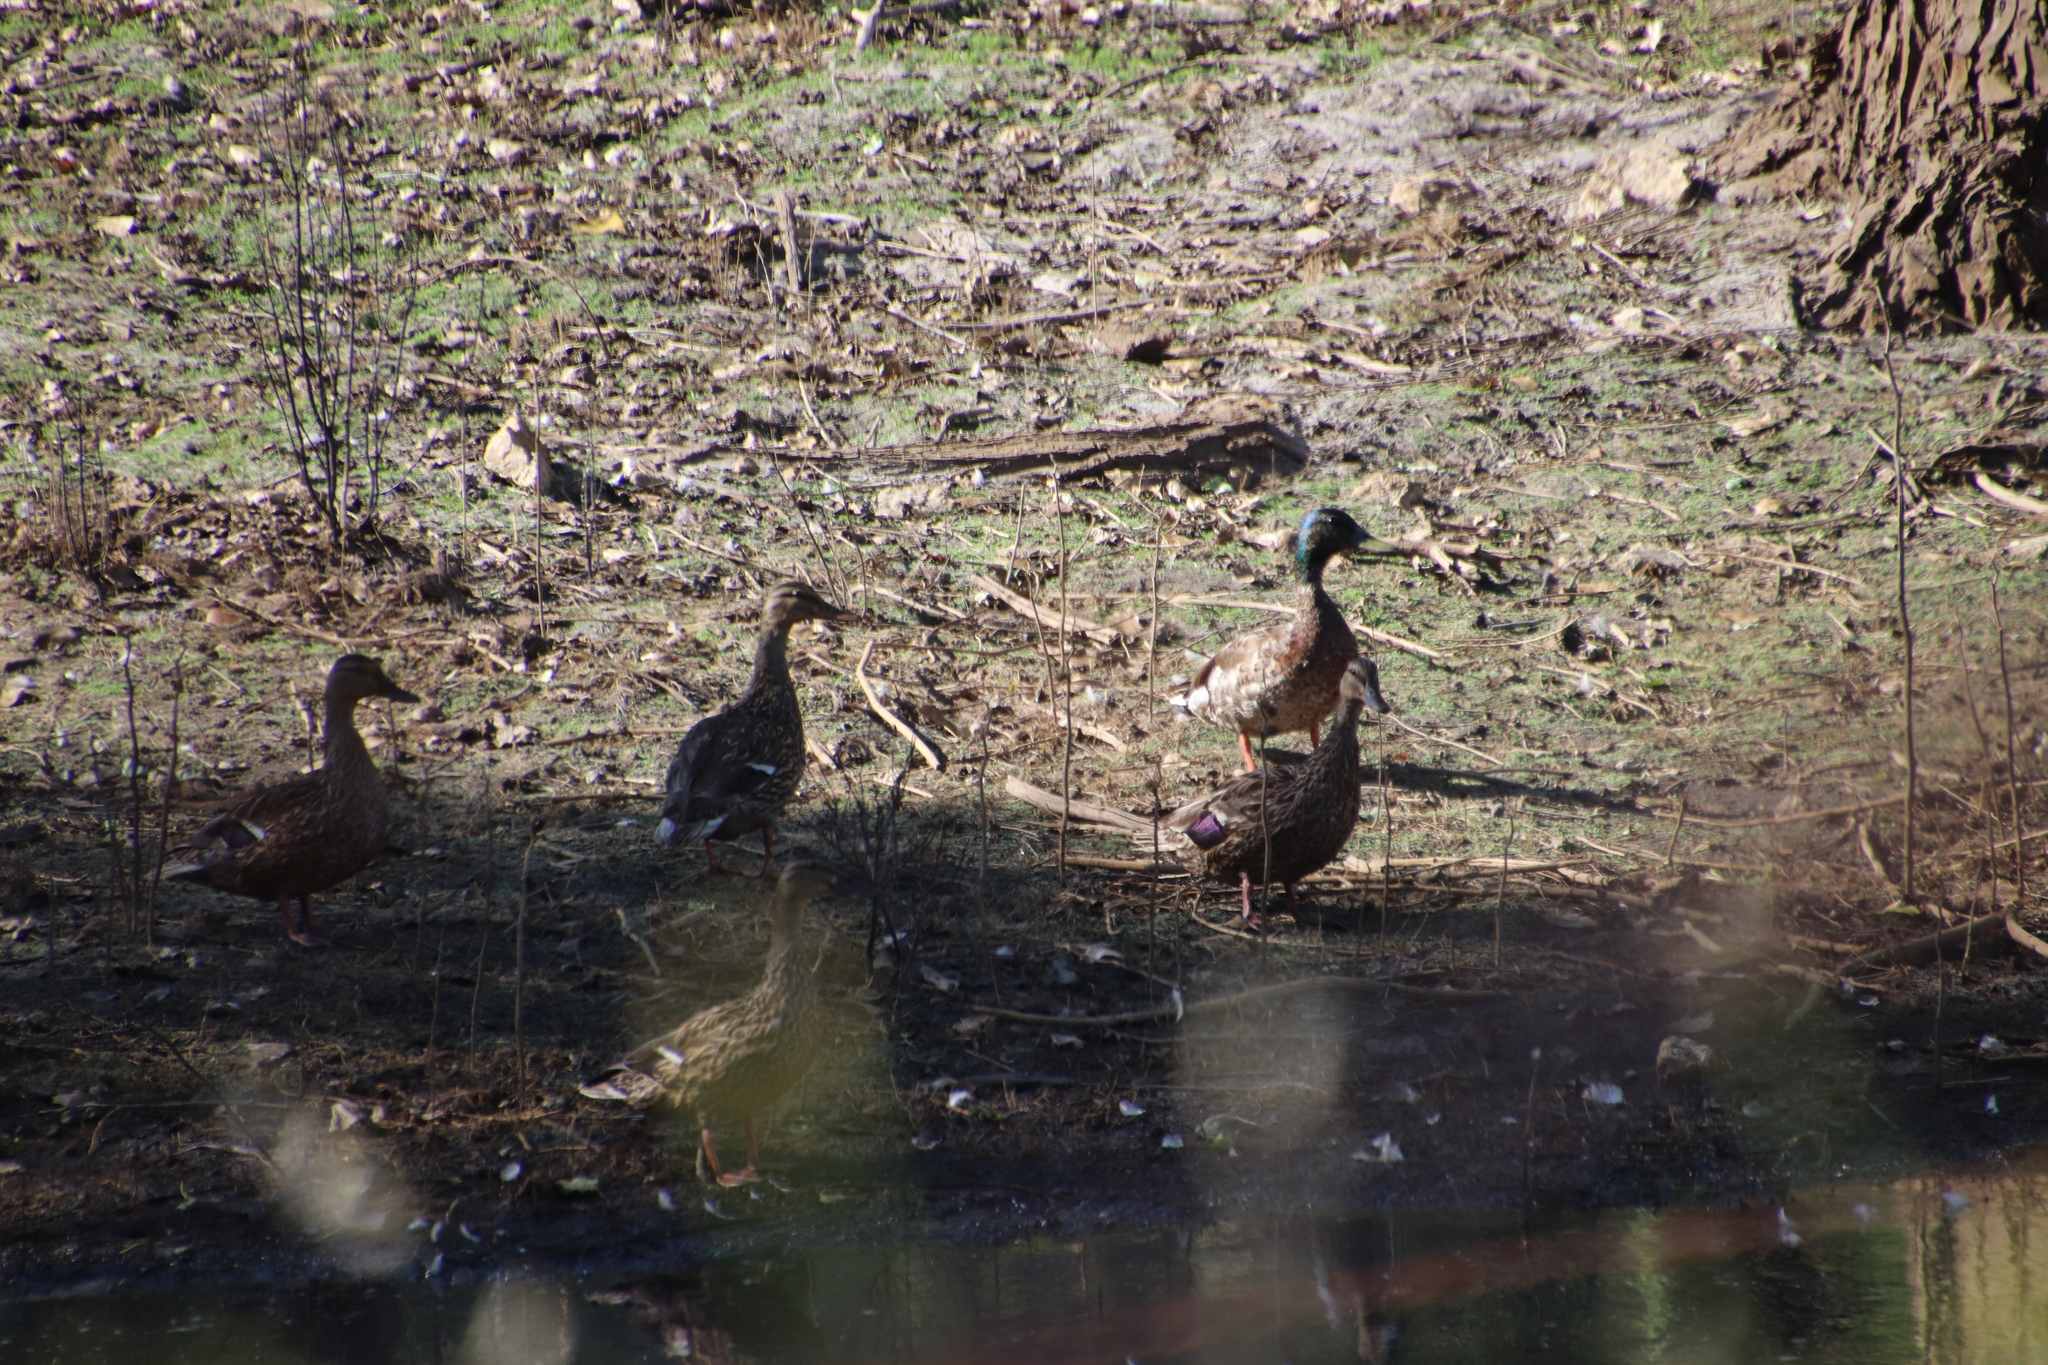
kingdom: Animalia
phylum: Chordata
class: Aves
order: Anseriformes
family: Anatidae
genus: Anas
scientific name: Anas platyrhynchos
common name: Mallard
